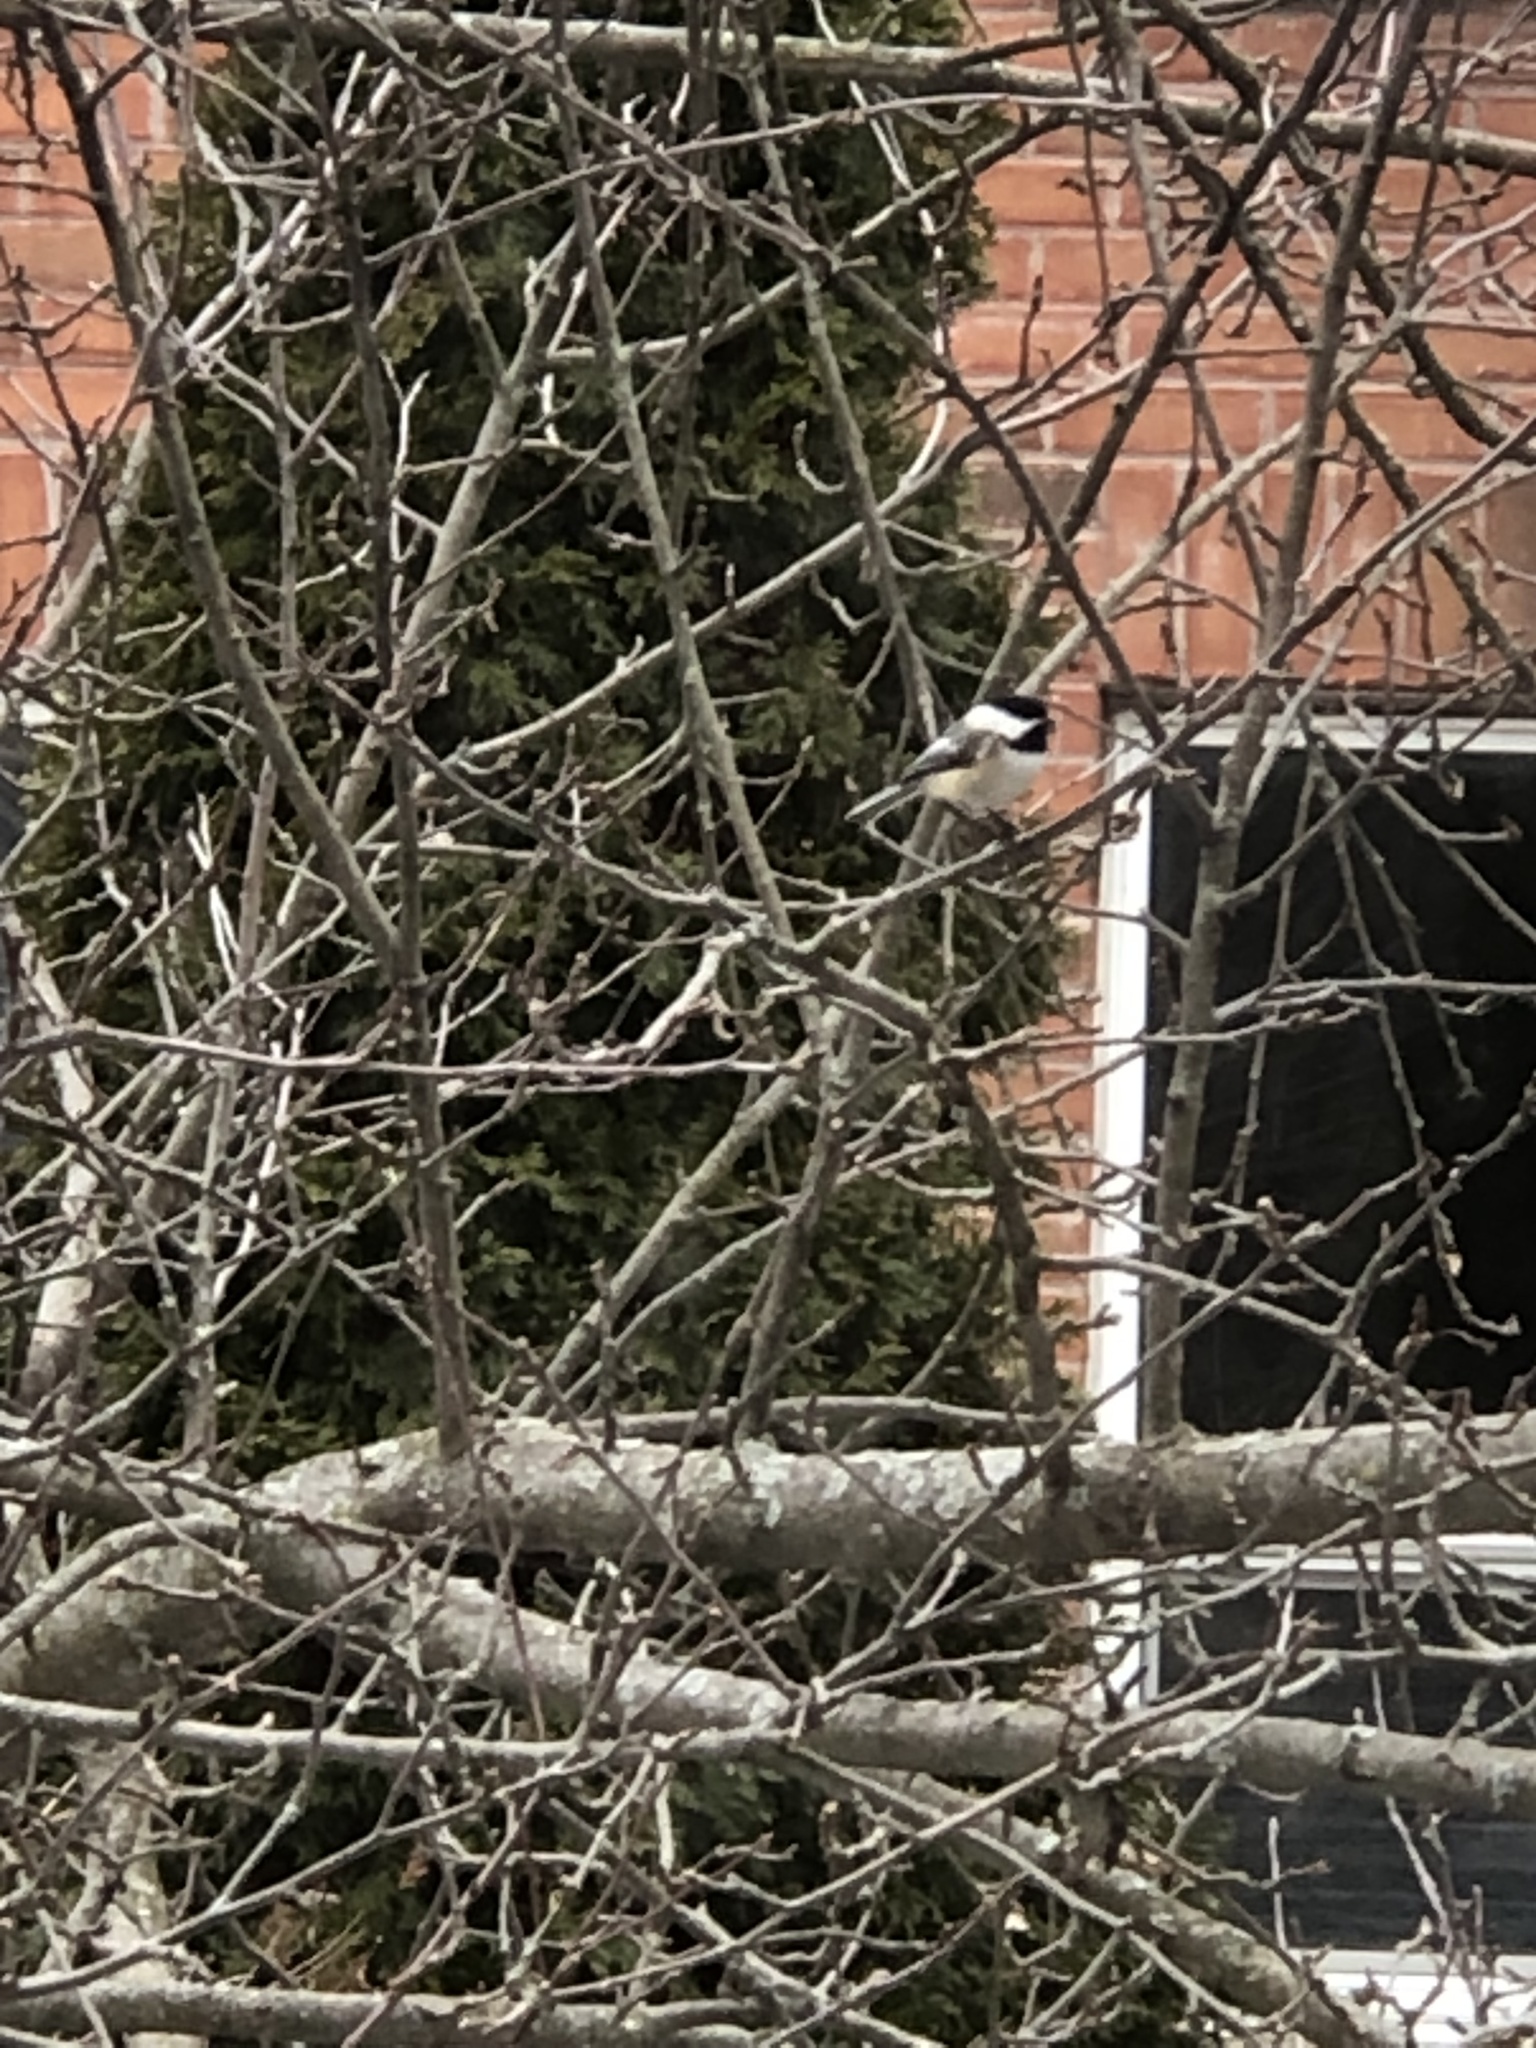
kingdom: Animalia
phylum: Chordata
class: Aves
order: Passeriformes
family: Paridae
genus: Poecile
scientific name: Poecile atricapillus
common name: Black-capped chickadee
